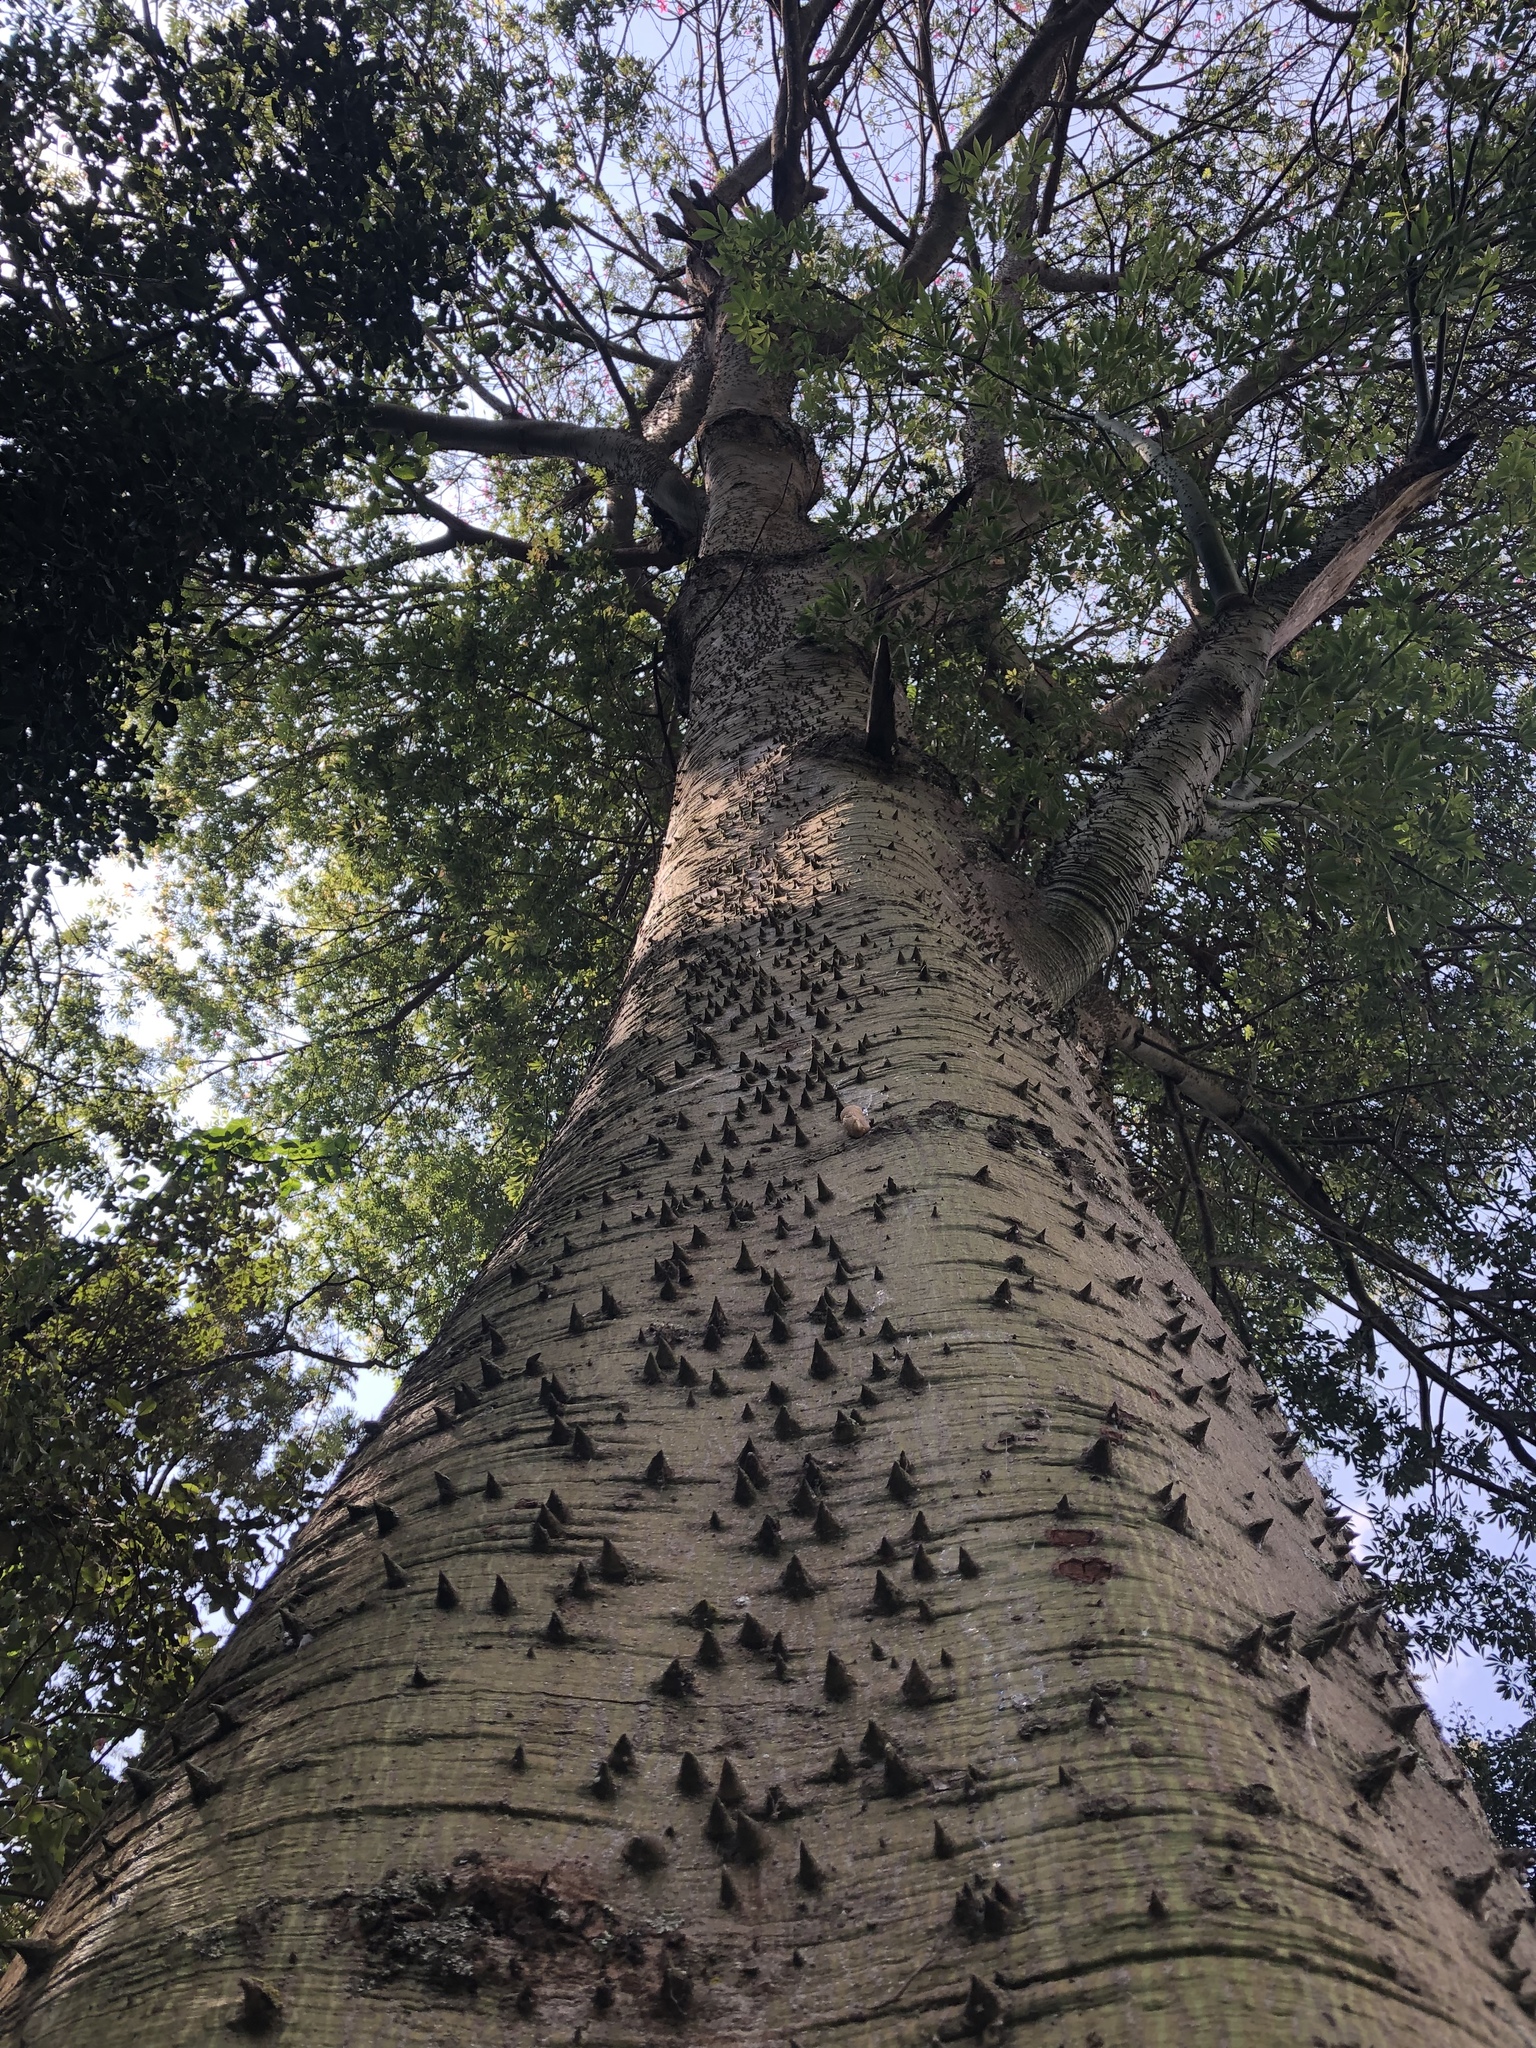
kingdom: Plantae
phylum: Tracheophyta
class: Magnoliopsida
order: Malvales
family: Malvaceae
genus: Bombax
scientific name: Bombax ceiba
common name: Northern-cottonwood
